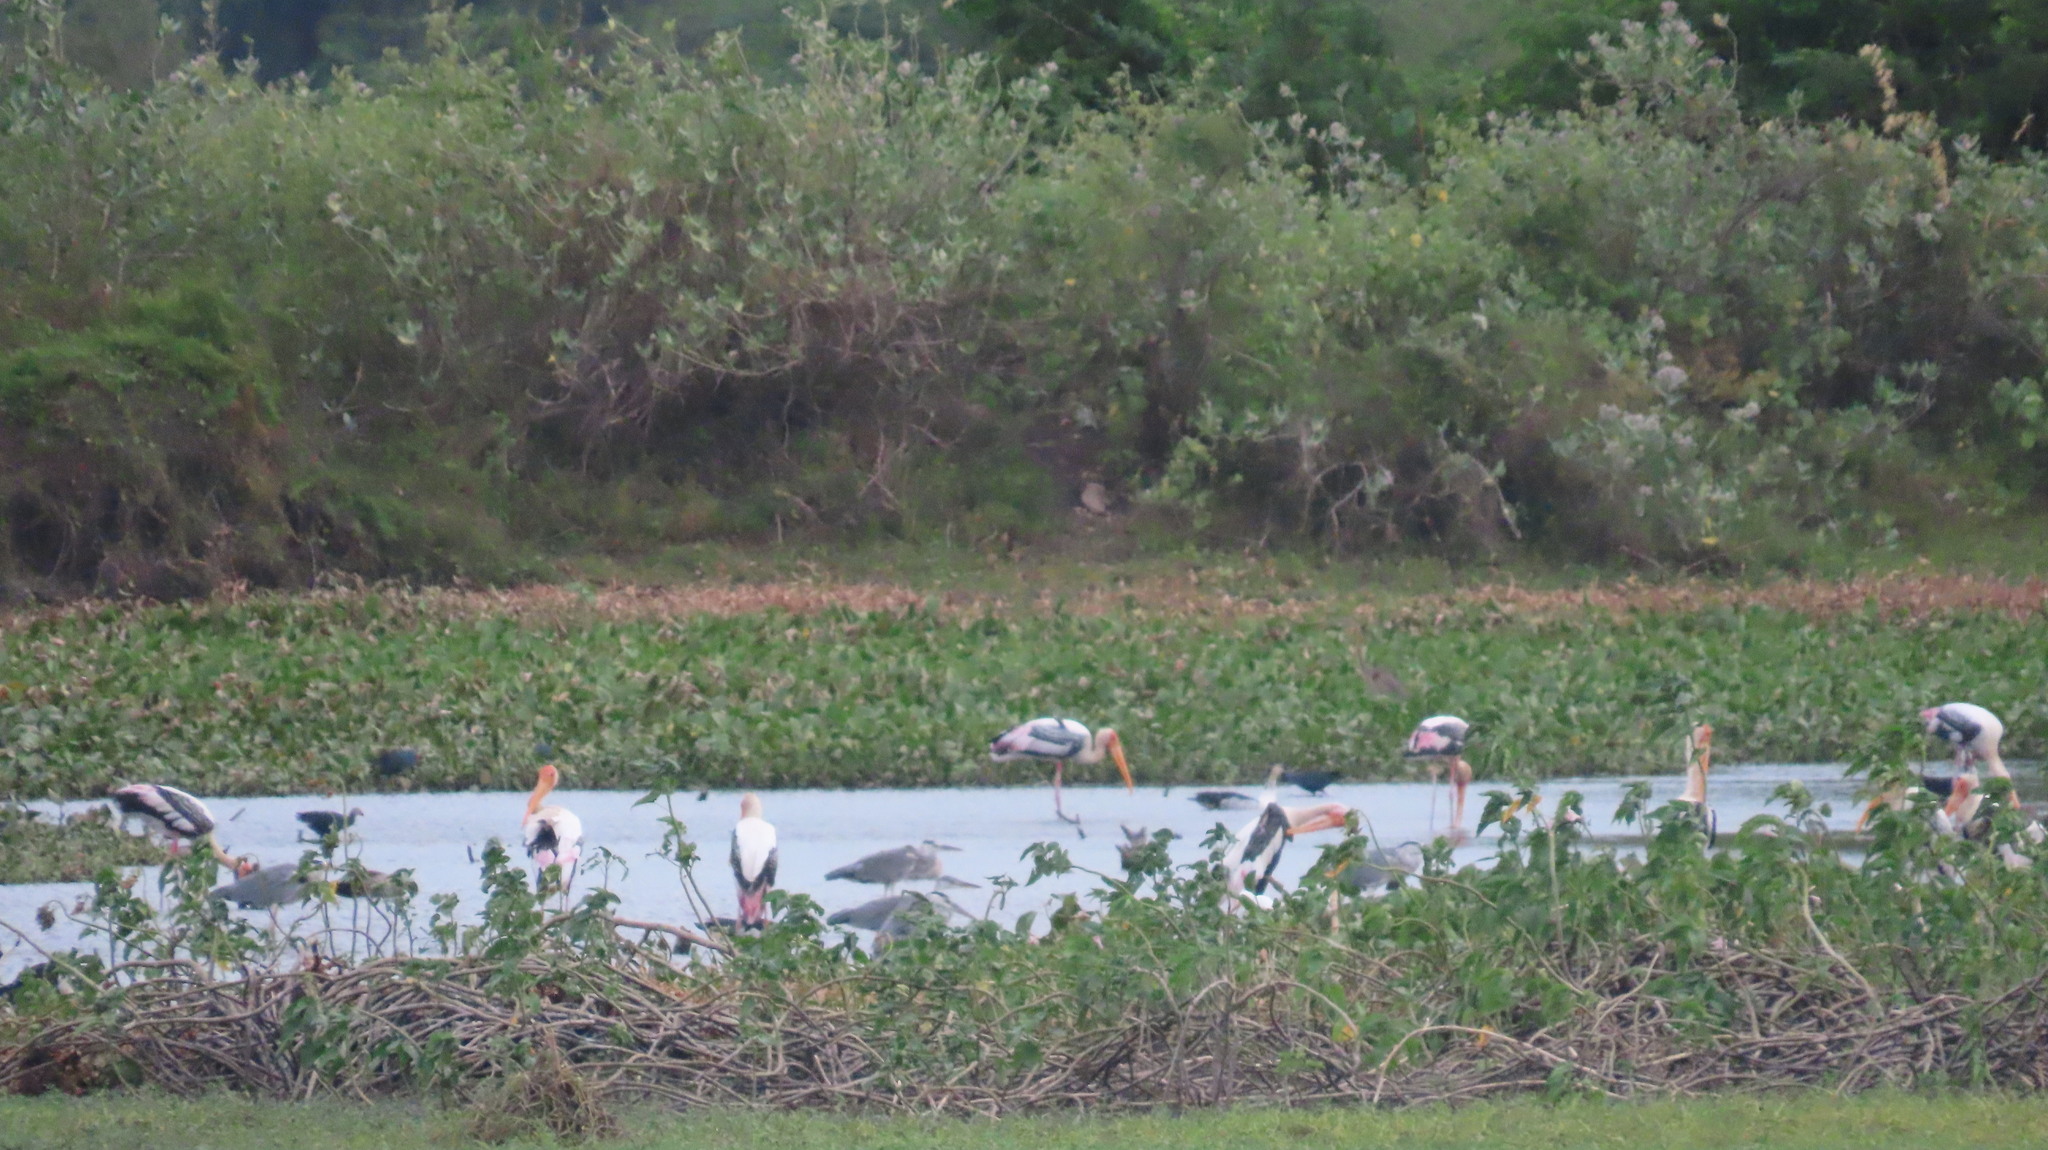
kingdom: Animalia
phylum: Chordata
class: Aves
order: Pelecaniformes
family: Ardeidae
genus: Ardea
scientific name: Ardea cinerea
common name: Grey heron
